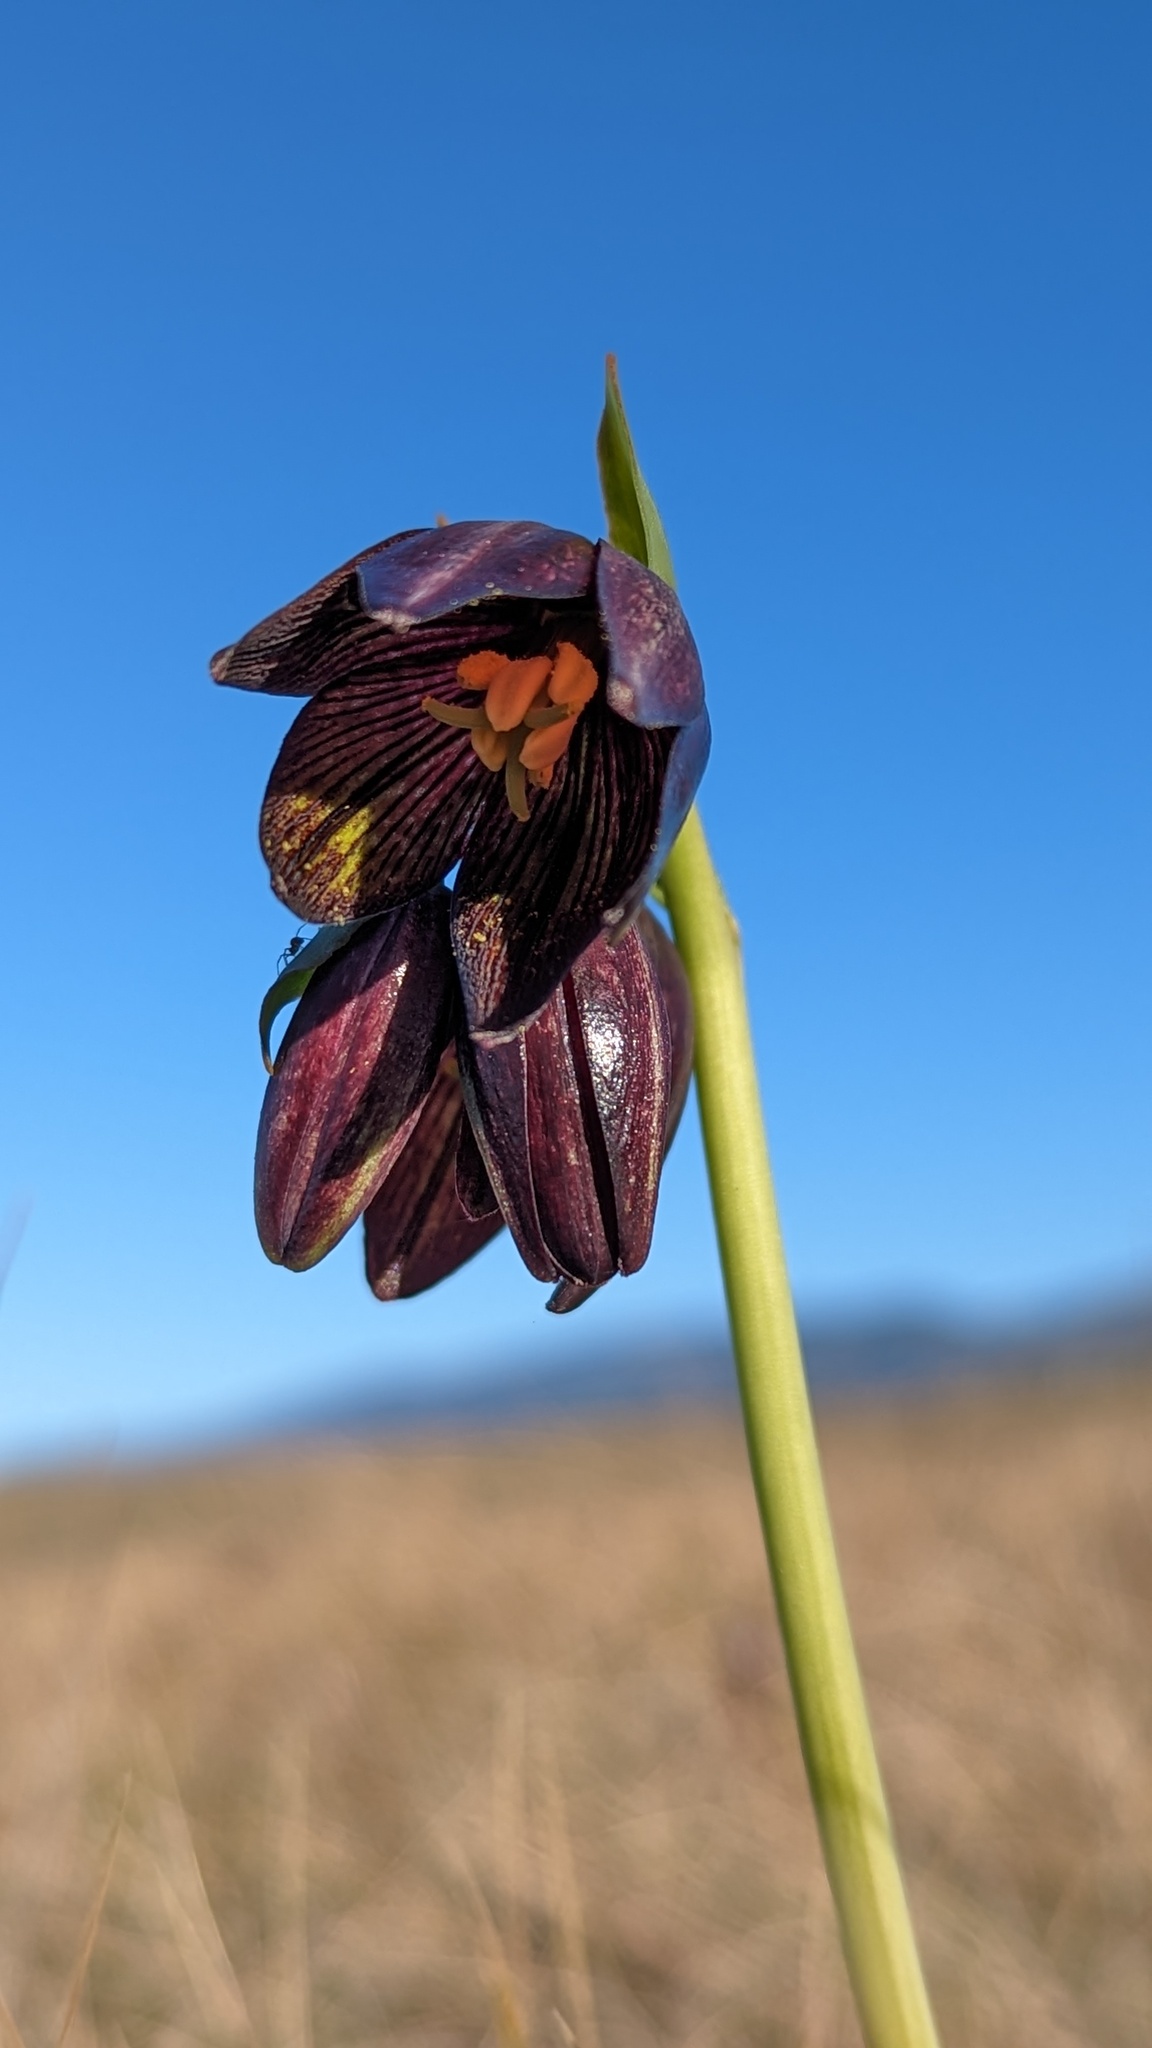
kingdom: Plantae
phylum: Tracheophyta
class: Liliopsida
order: Liliales
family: Liliaceae
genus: Fritillaria
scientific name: Fritillaria biflora
